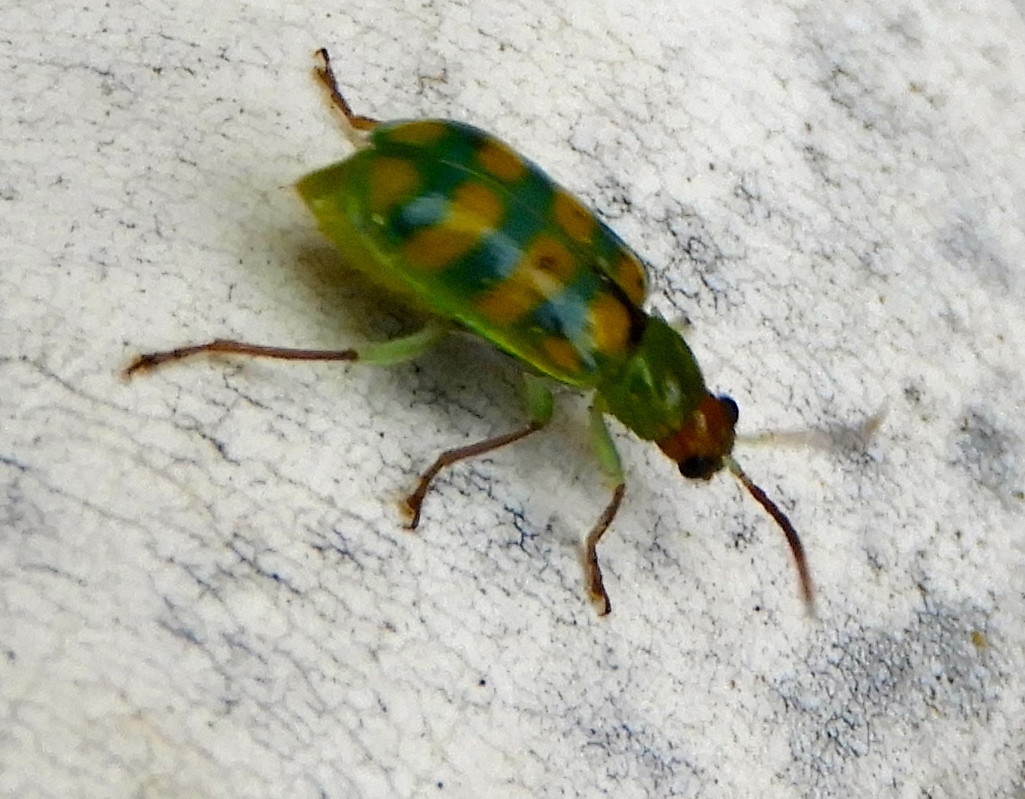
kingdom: Animalia
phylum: Arthropoda
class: Insecta
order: Coleoptera
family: Chrysomelidae
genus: Diabrotica
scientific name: Diabrotica balteata
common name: Leaf beetle
